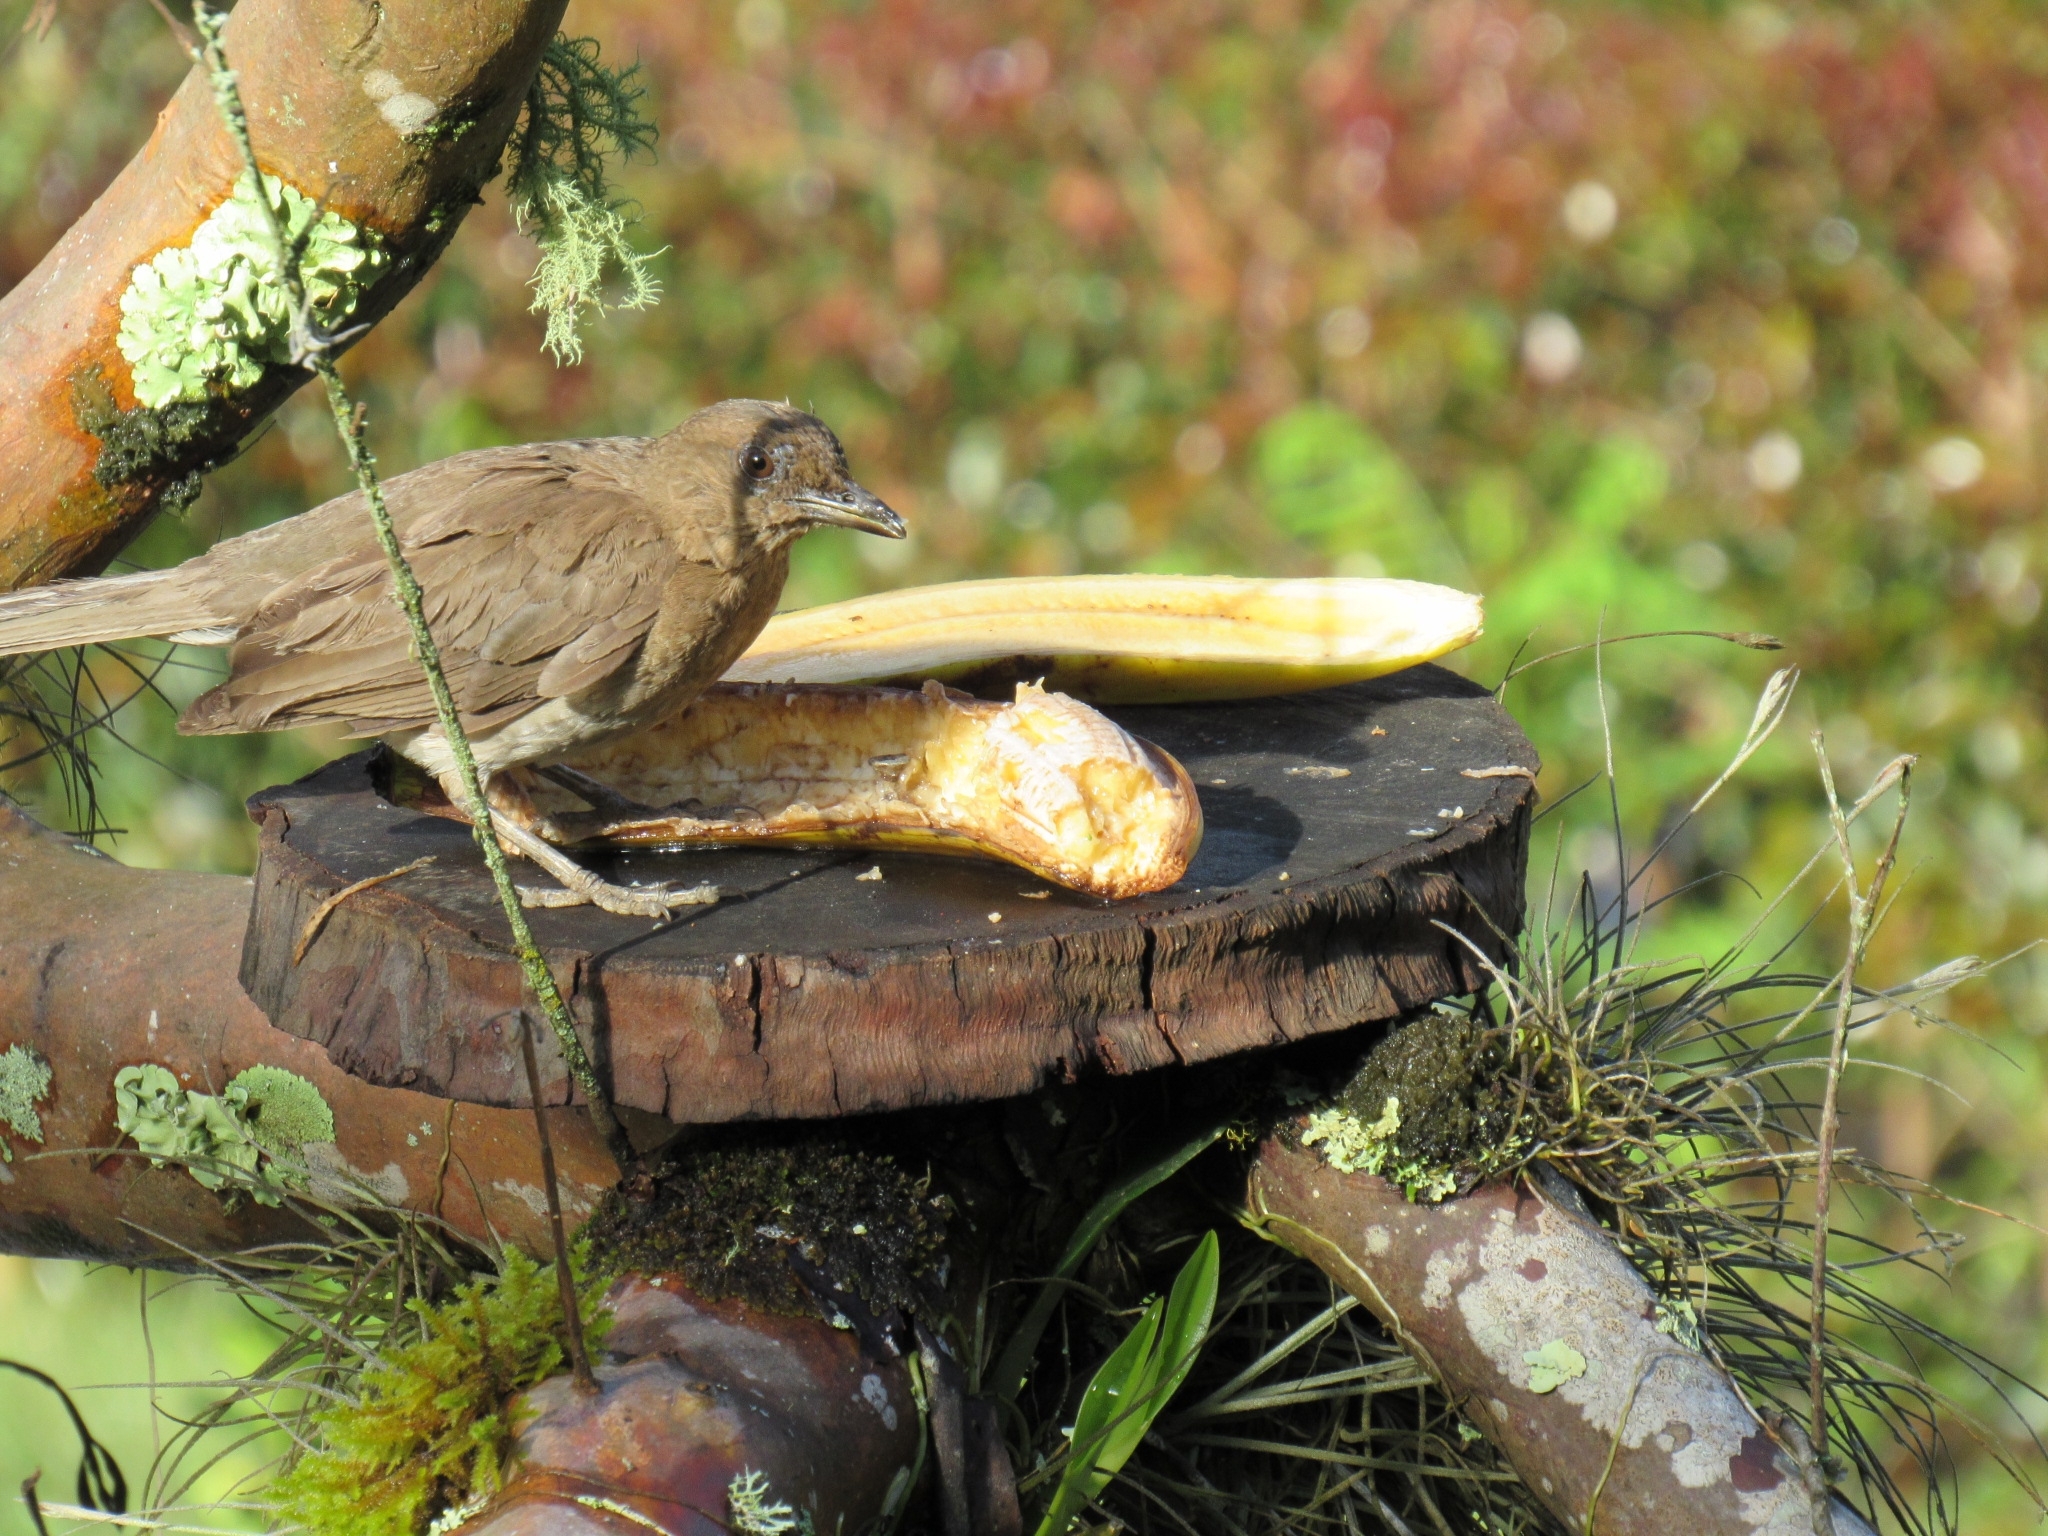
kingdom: Animalia
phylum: Chordata
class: Aves
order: Passeriformes
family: Turdidae
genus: Turdus
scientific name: Turdus ignobilis
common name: Black-billed thrush
